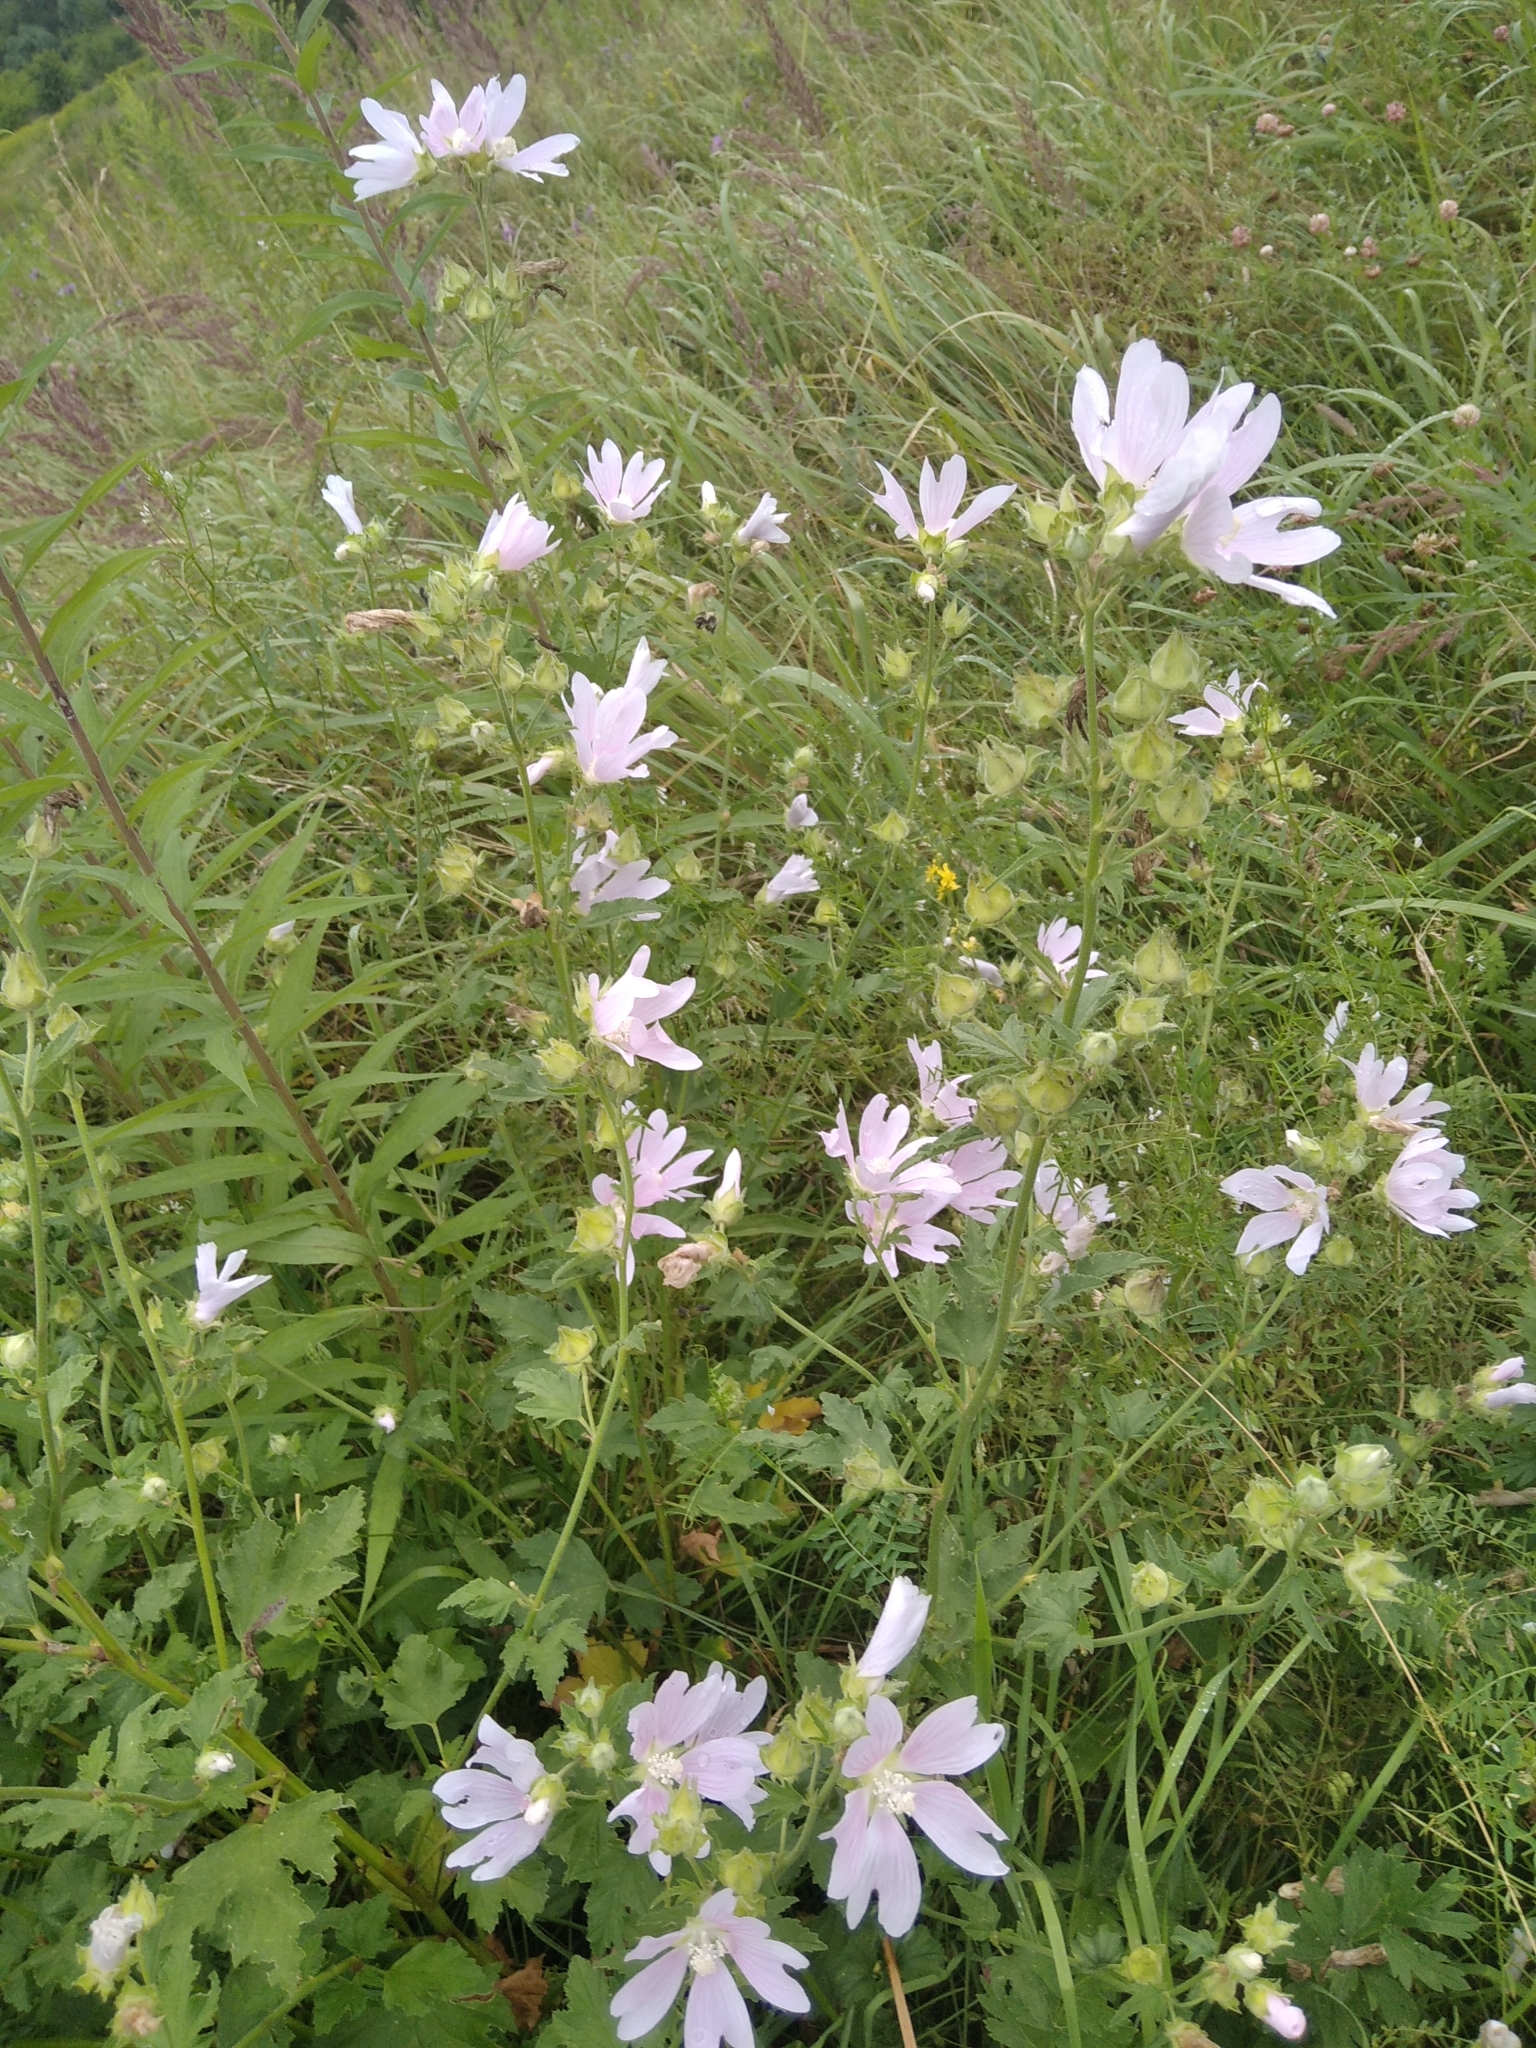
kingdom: Plantae
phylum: Tracheophyta
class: Magnoliopsida
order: Malvales
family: Malvaceae
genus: Malva
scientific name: Malva thuringiaca
